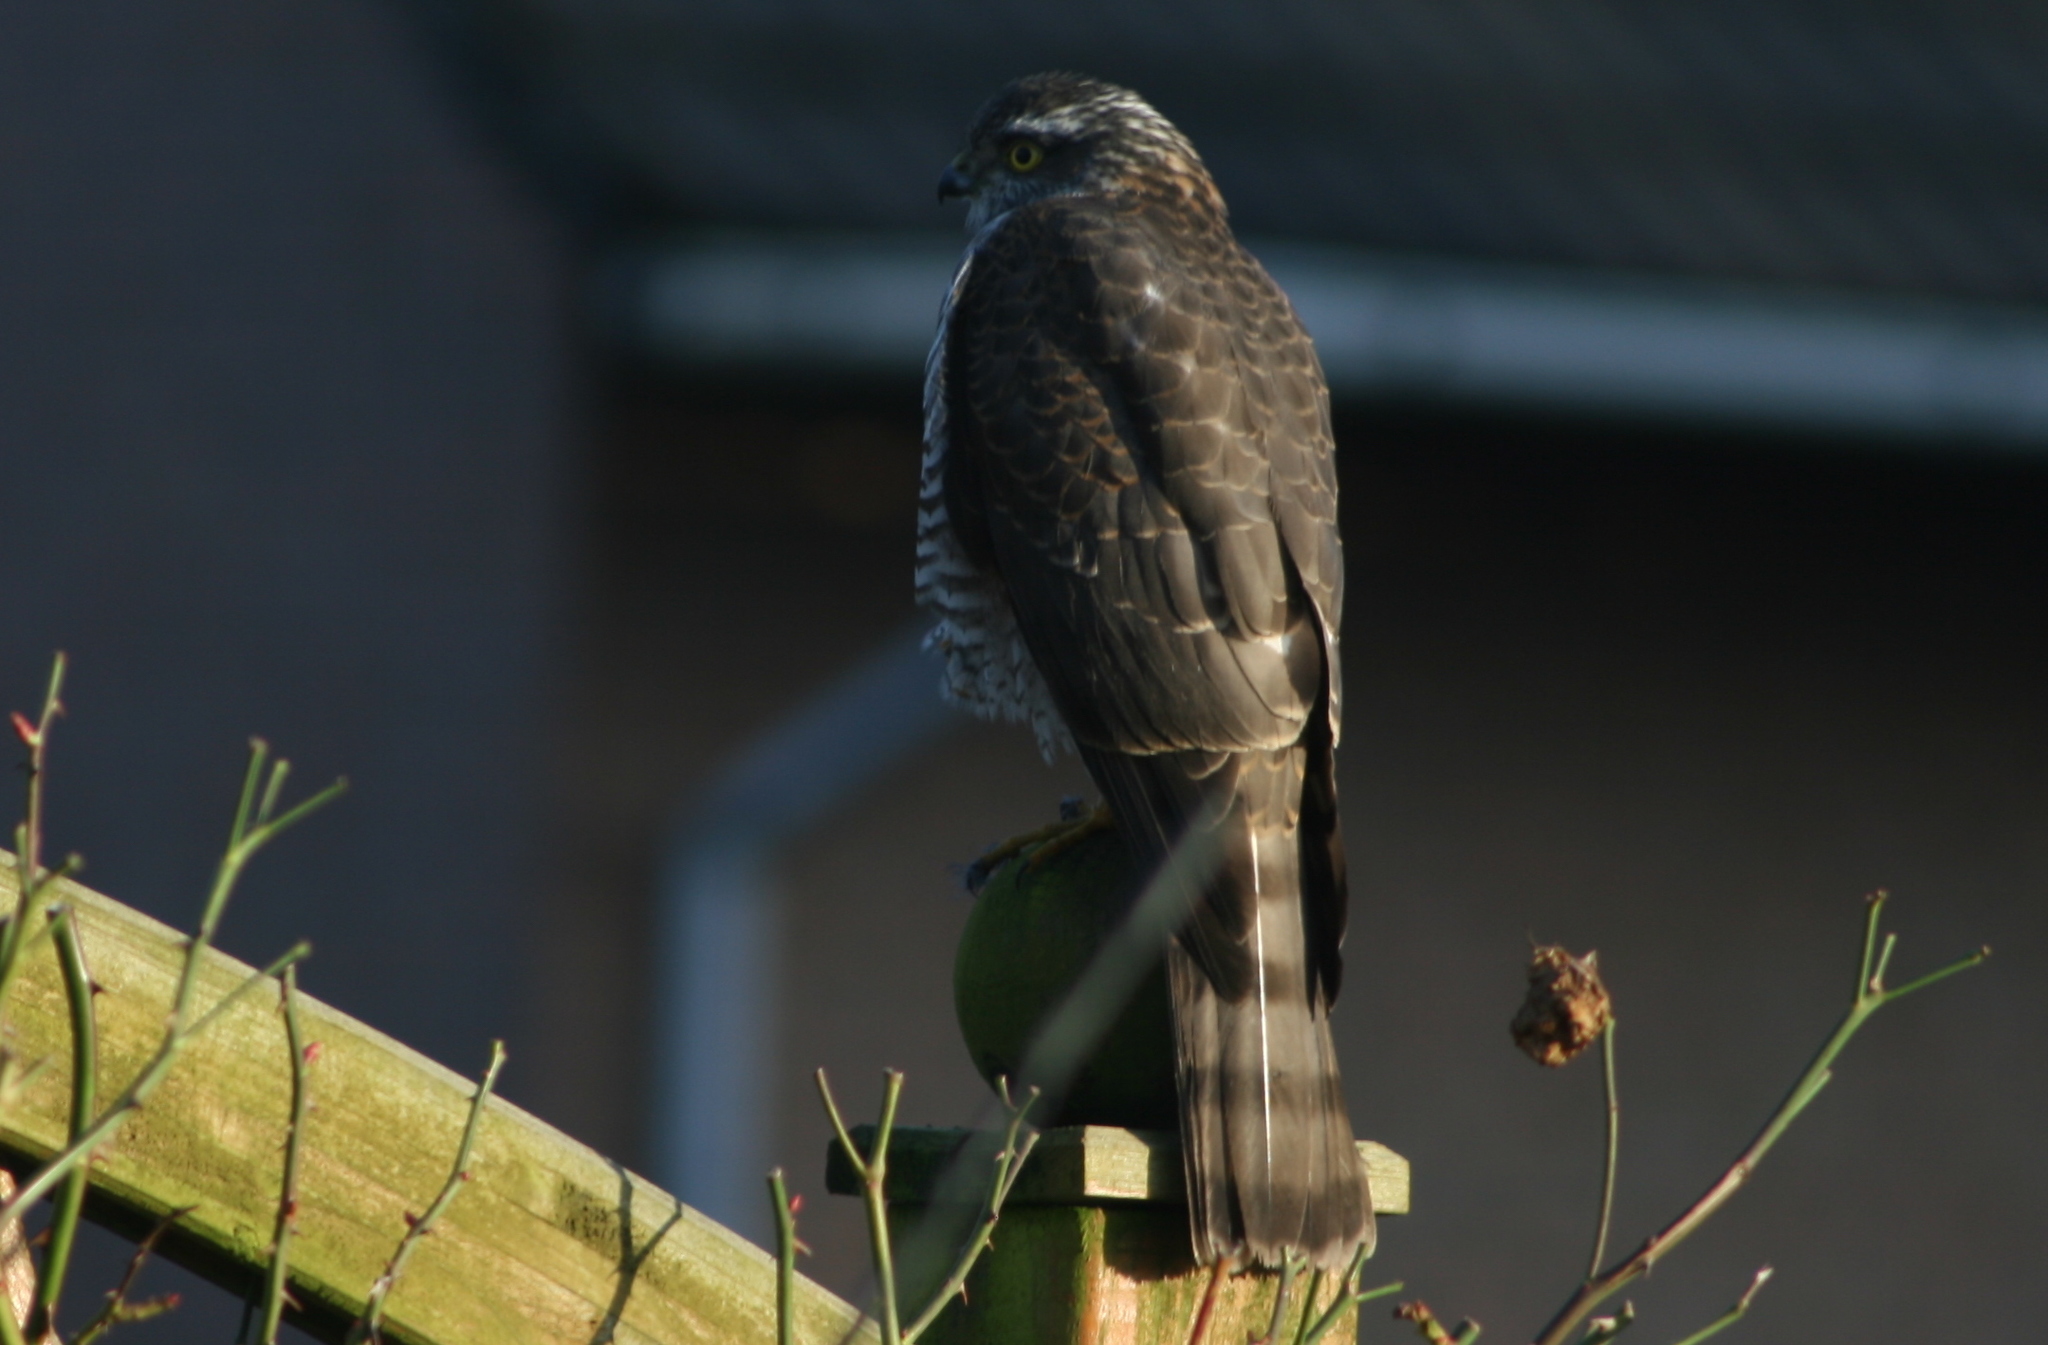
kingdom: Animalia
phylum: Chordata
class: Aves
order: Accipitriformes
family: Accipitridae
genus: Accipiter
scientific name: Accipiter nisus
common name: Eurasian sparrowhawk
